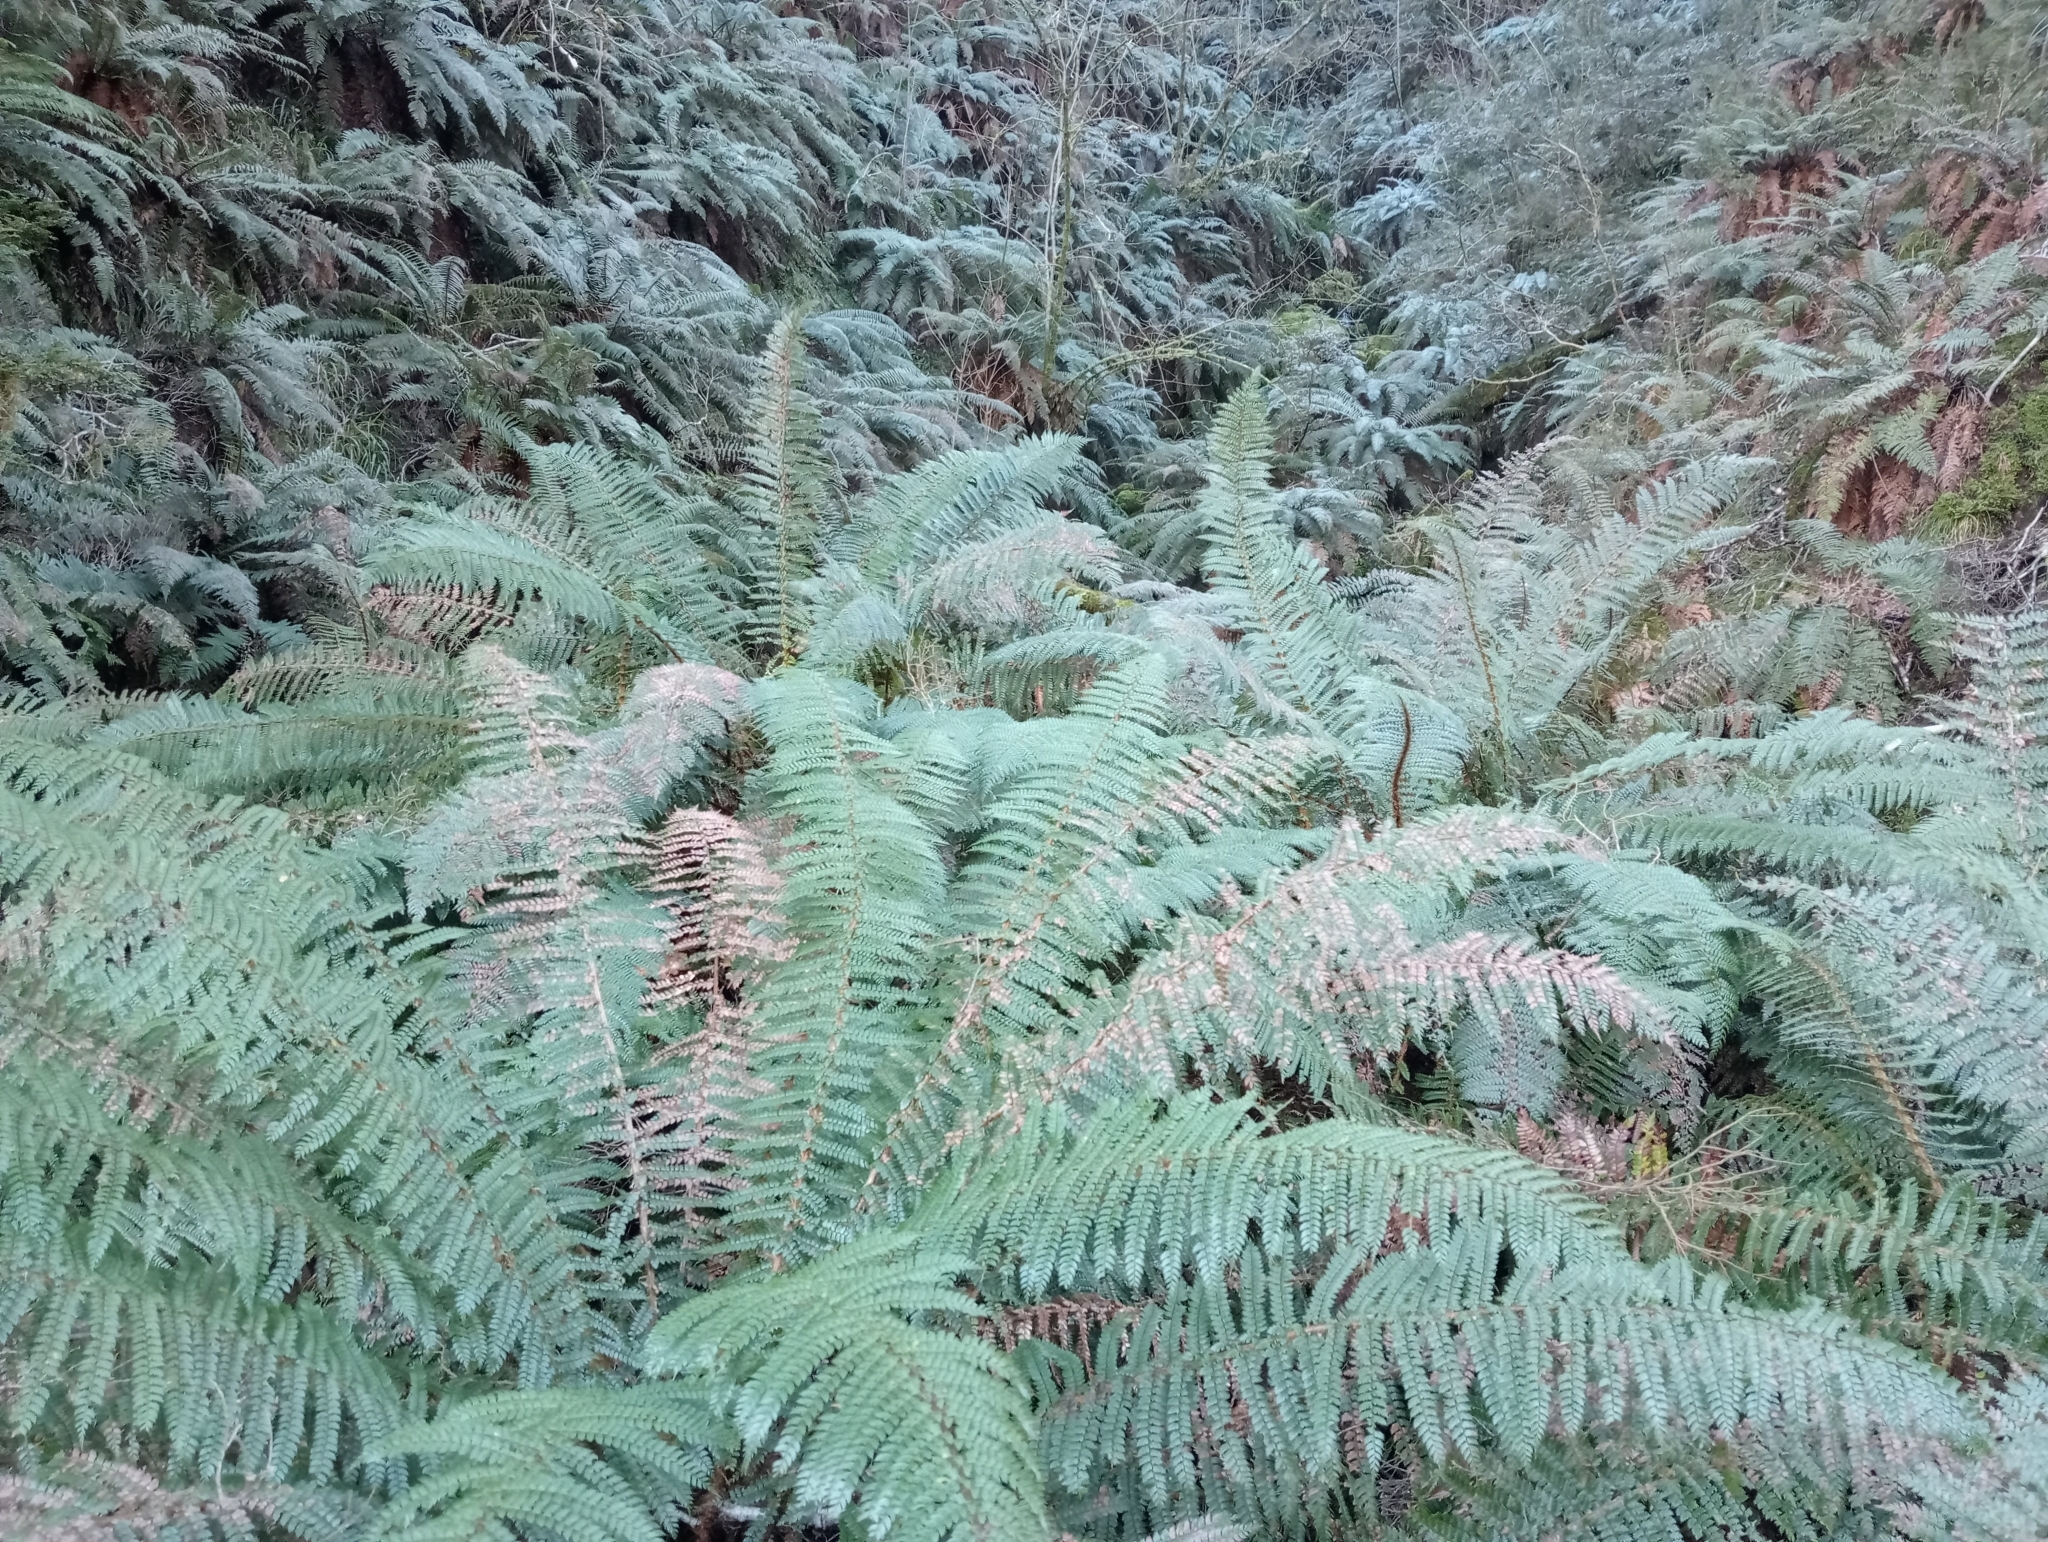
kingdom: Plantae
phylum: Tracheophyta
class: Polypodiopsida
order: Polypodiales
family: Dryopteridaceae
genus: Polystichum
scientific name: Polystichum vestitum
